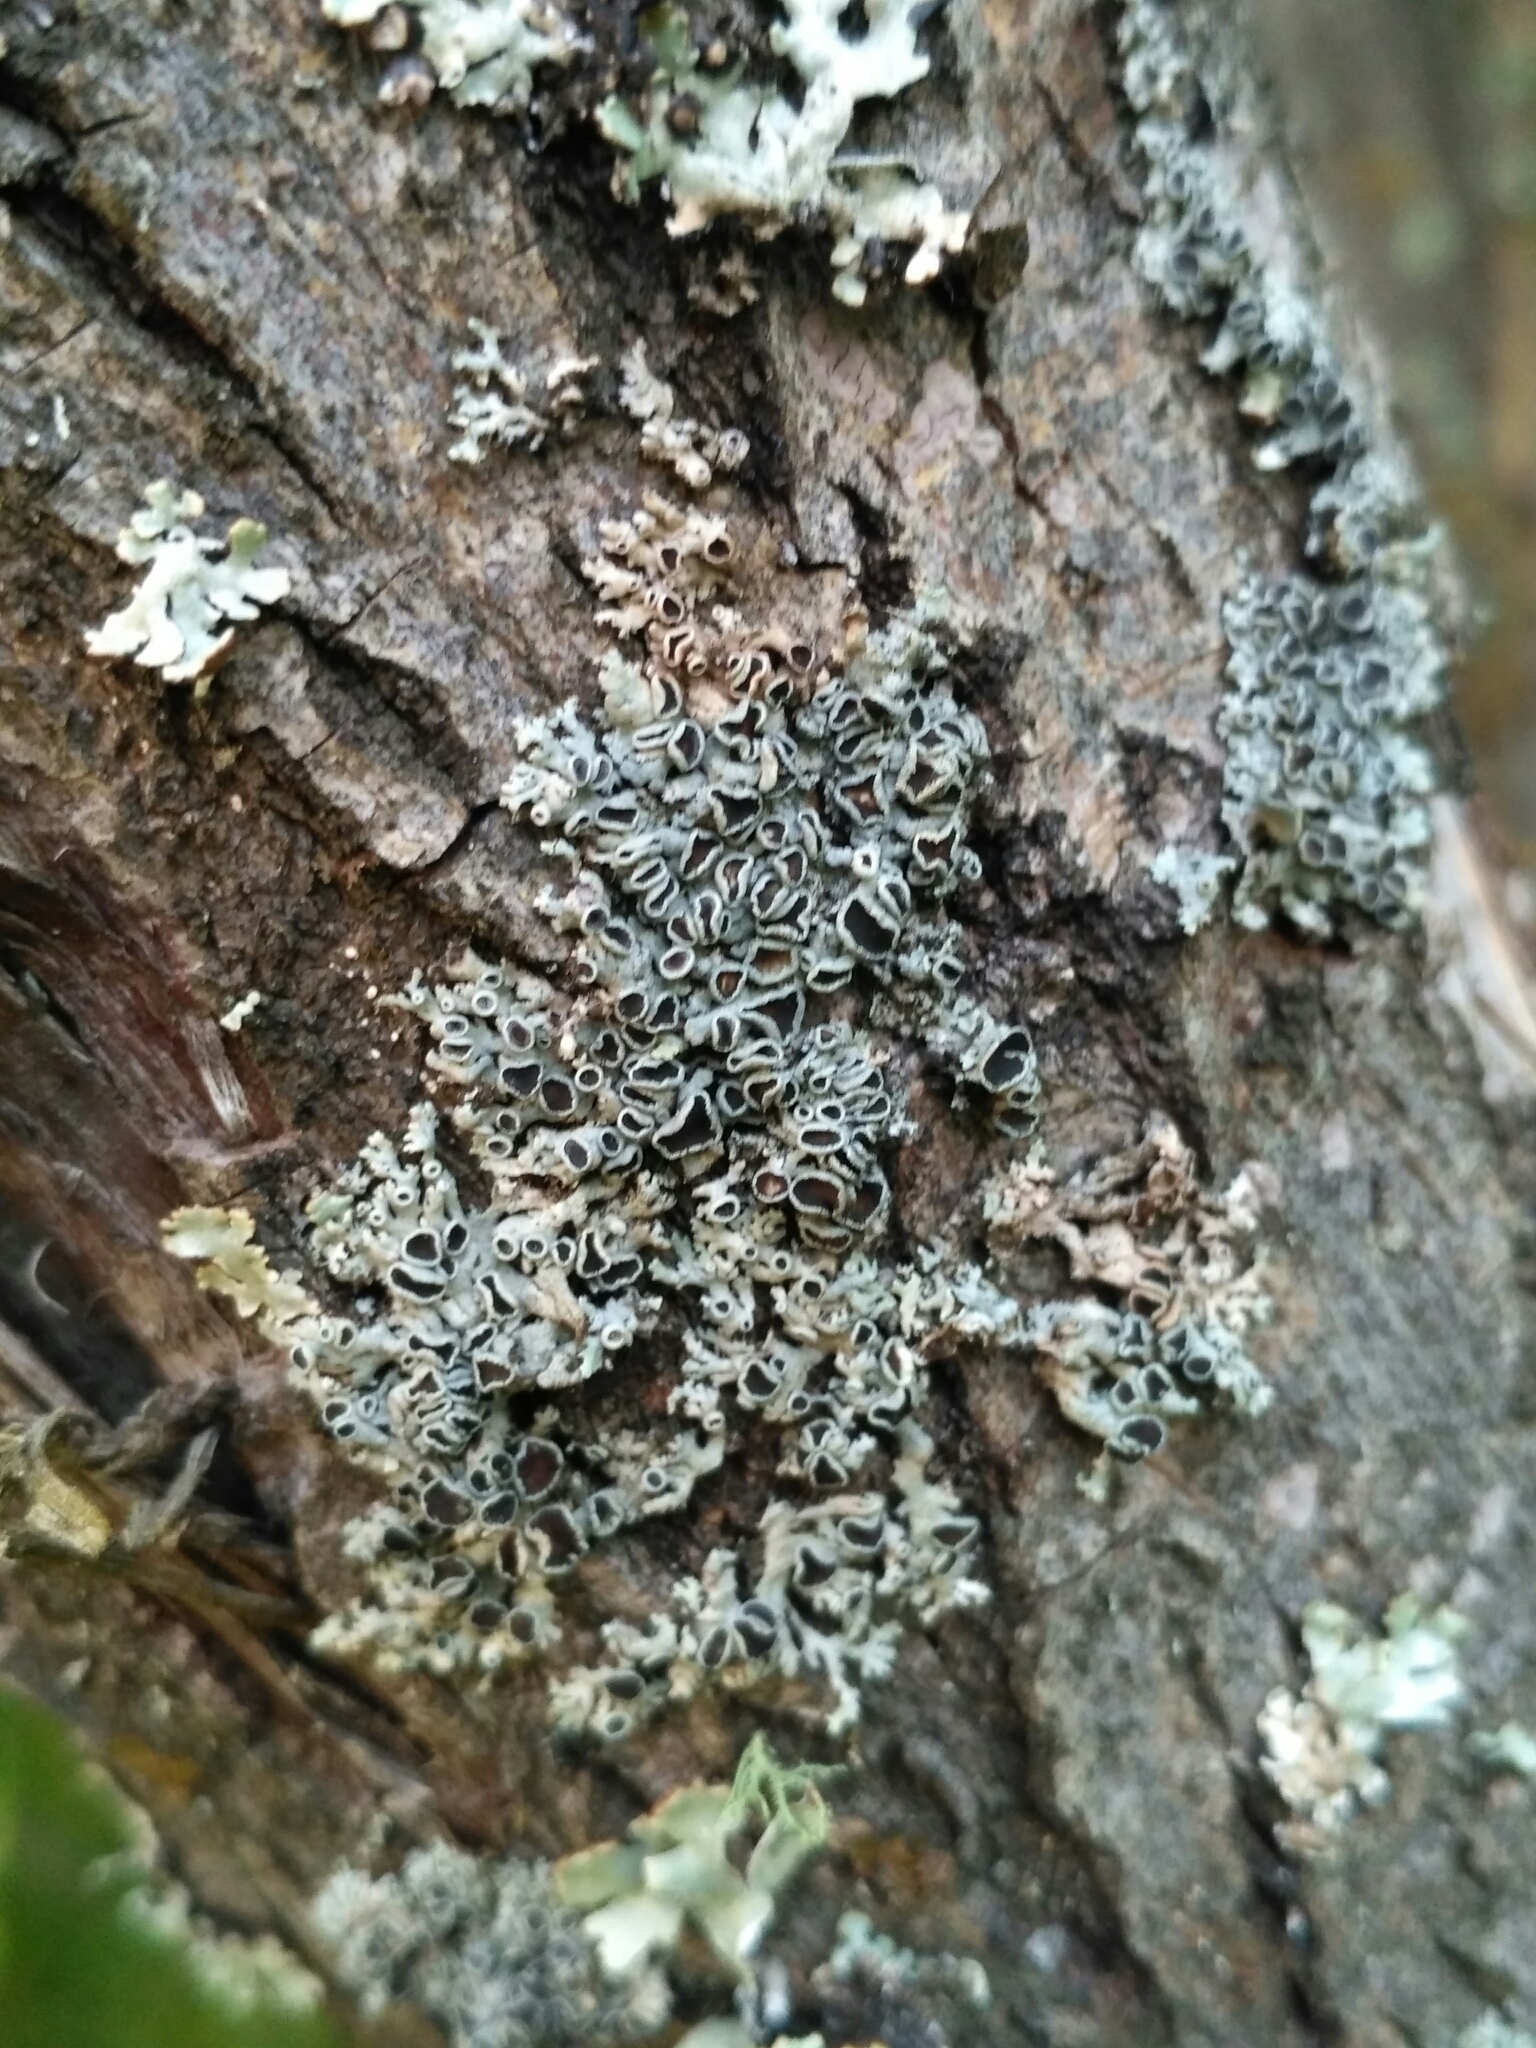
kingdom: Fungi
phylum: Ascomycota
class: Lecanoromycetes
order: Caliciales
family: Physciaceae
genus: Physcia
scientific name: Physcia stellaris
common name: Star rosette lichen
